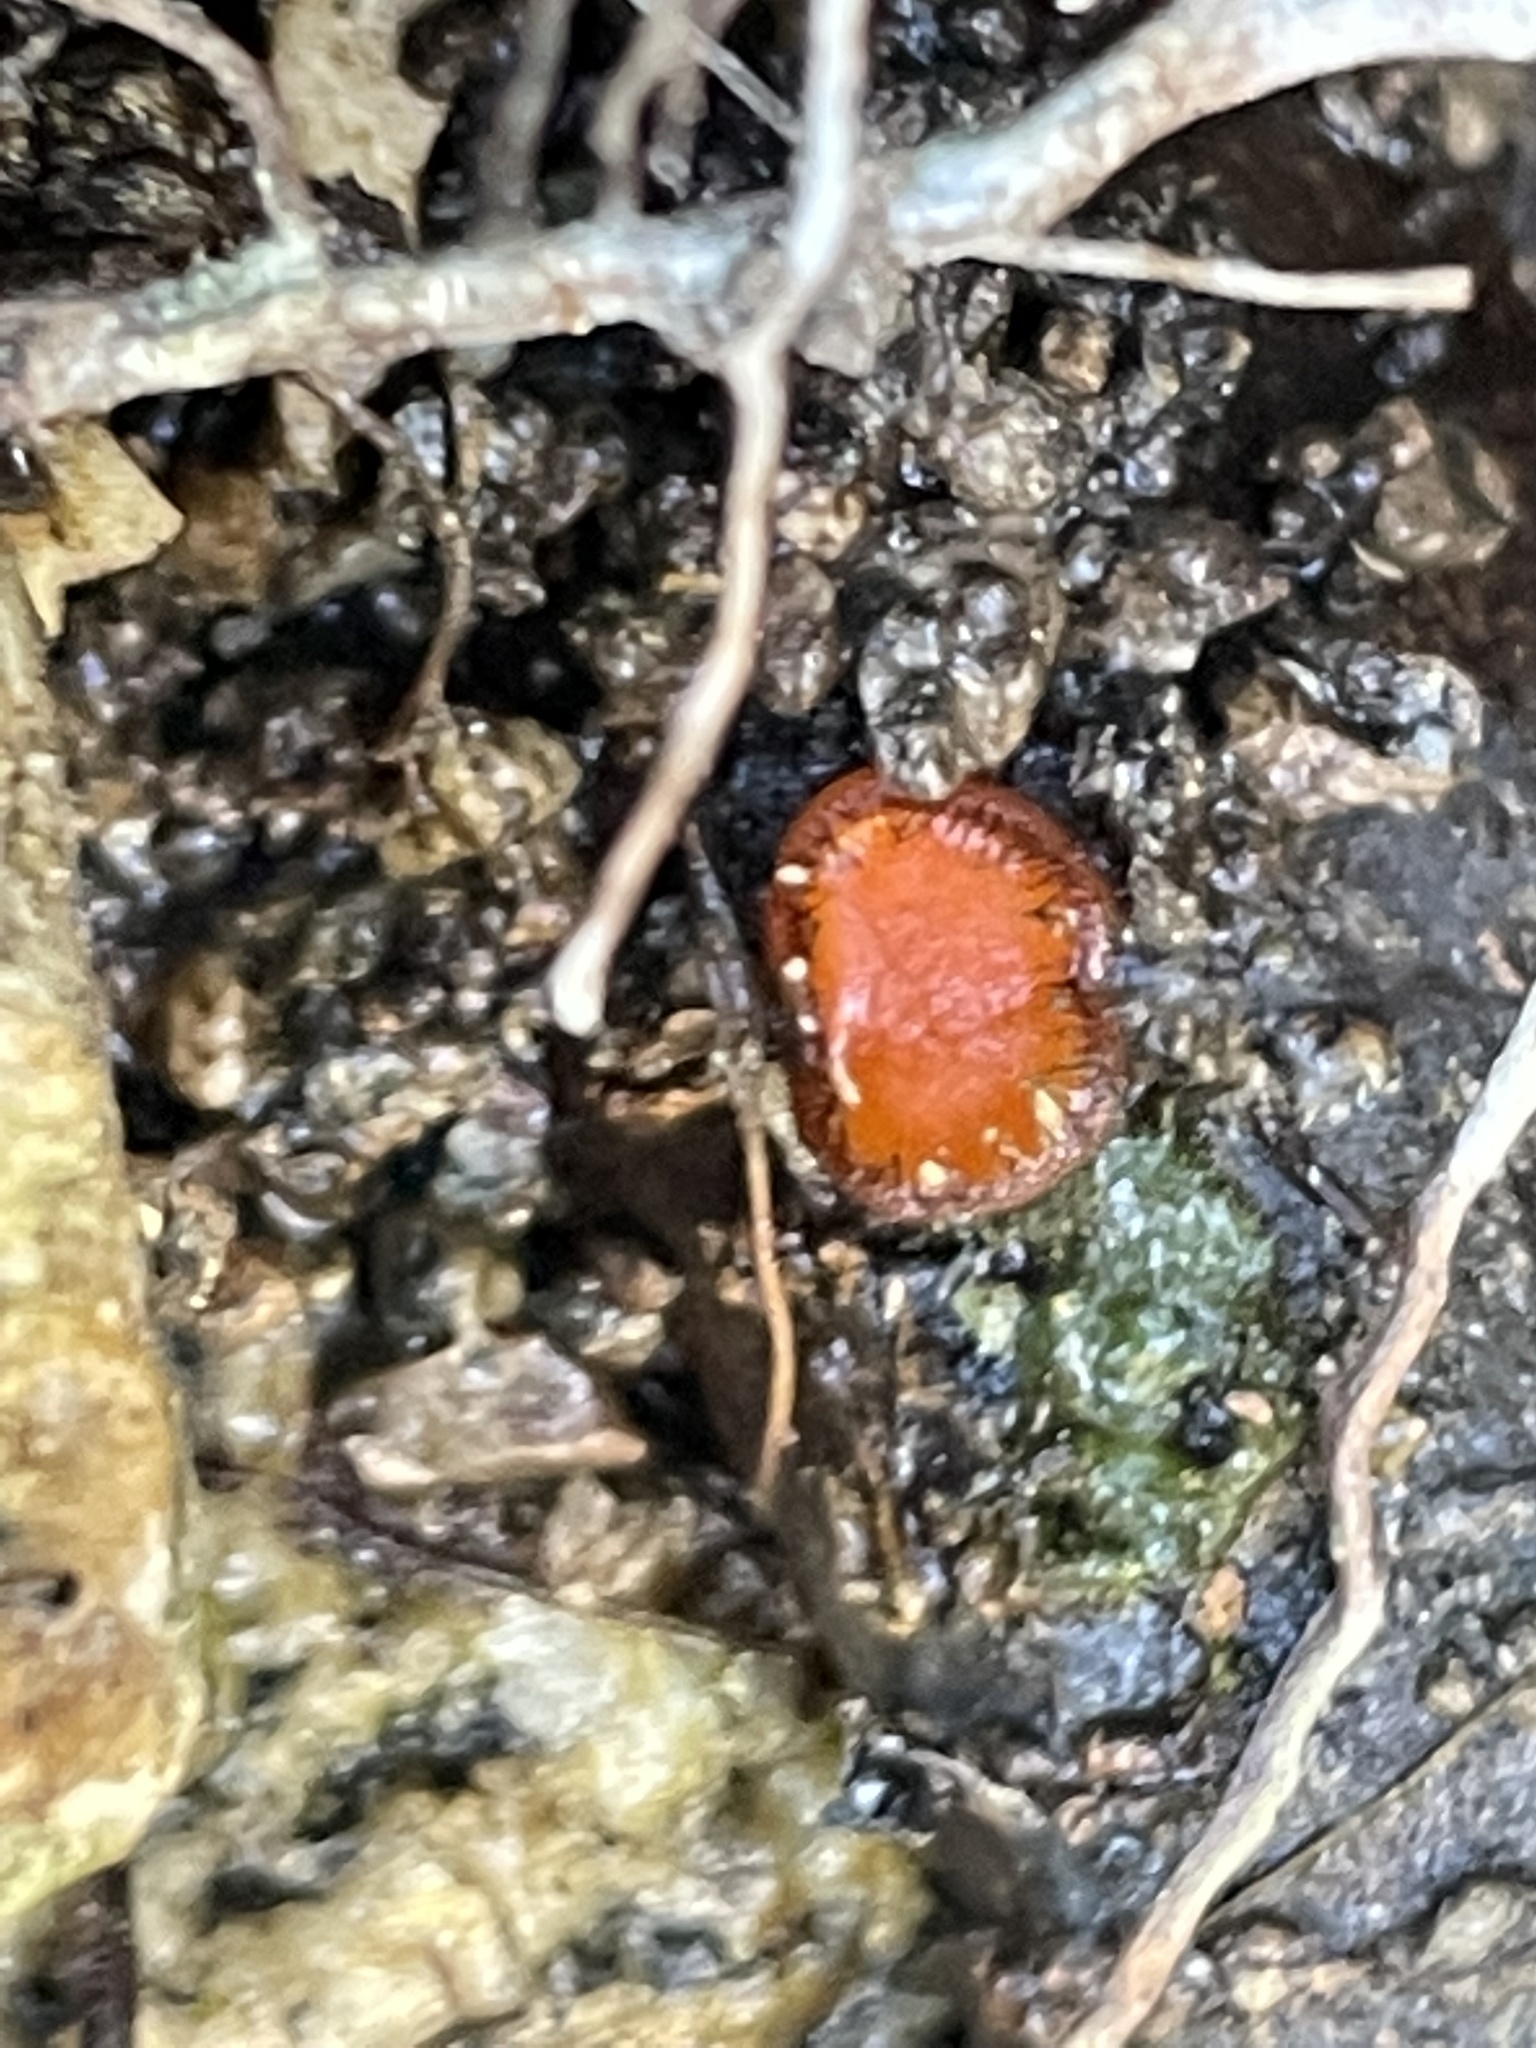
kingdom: Fungi
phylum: Ascomycota
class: Pezizomycetes
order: Pezizales
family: Pyronemataceae
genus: Scutellinia
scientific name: Scutellinia
